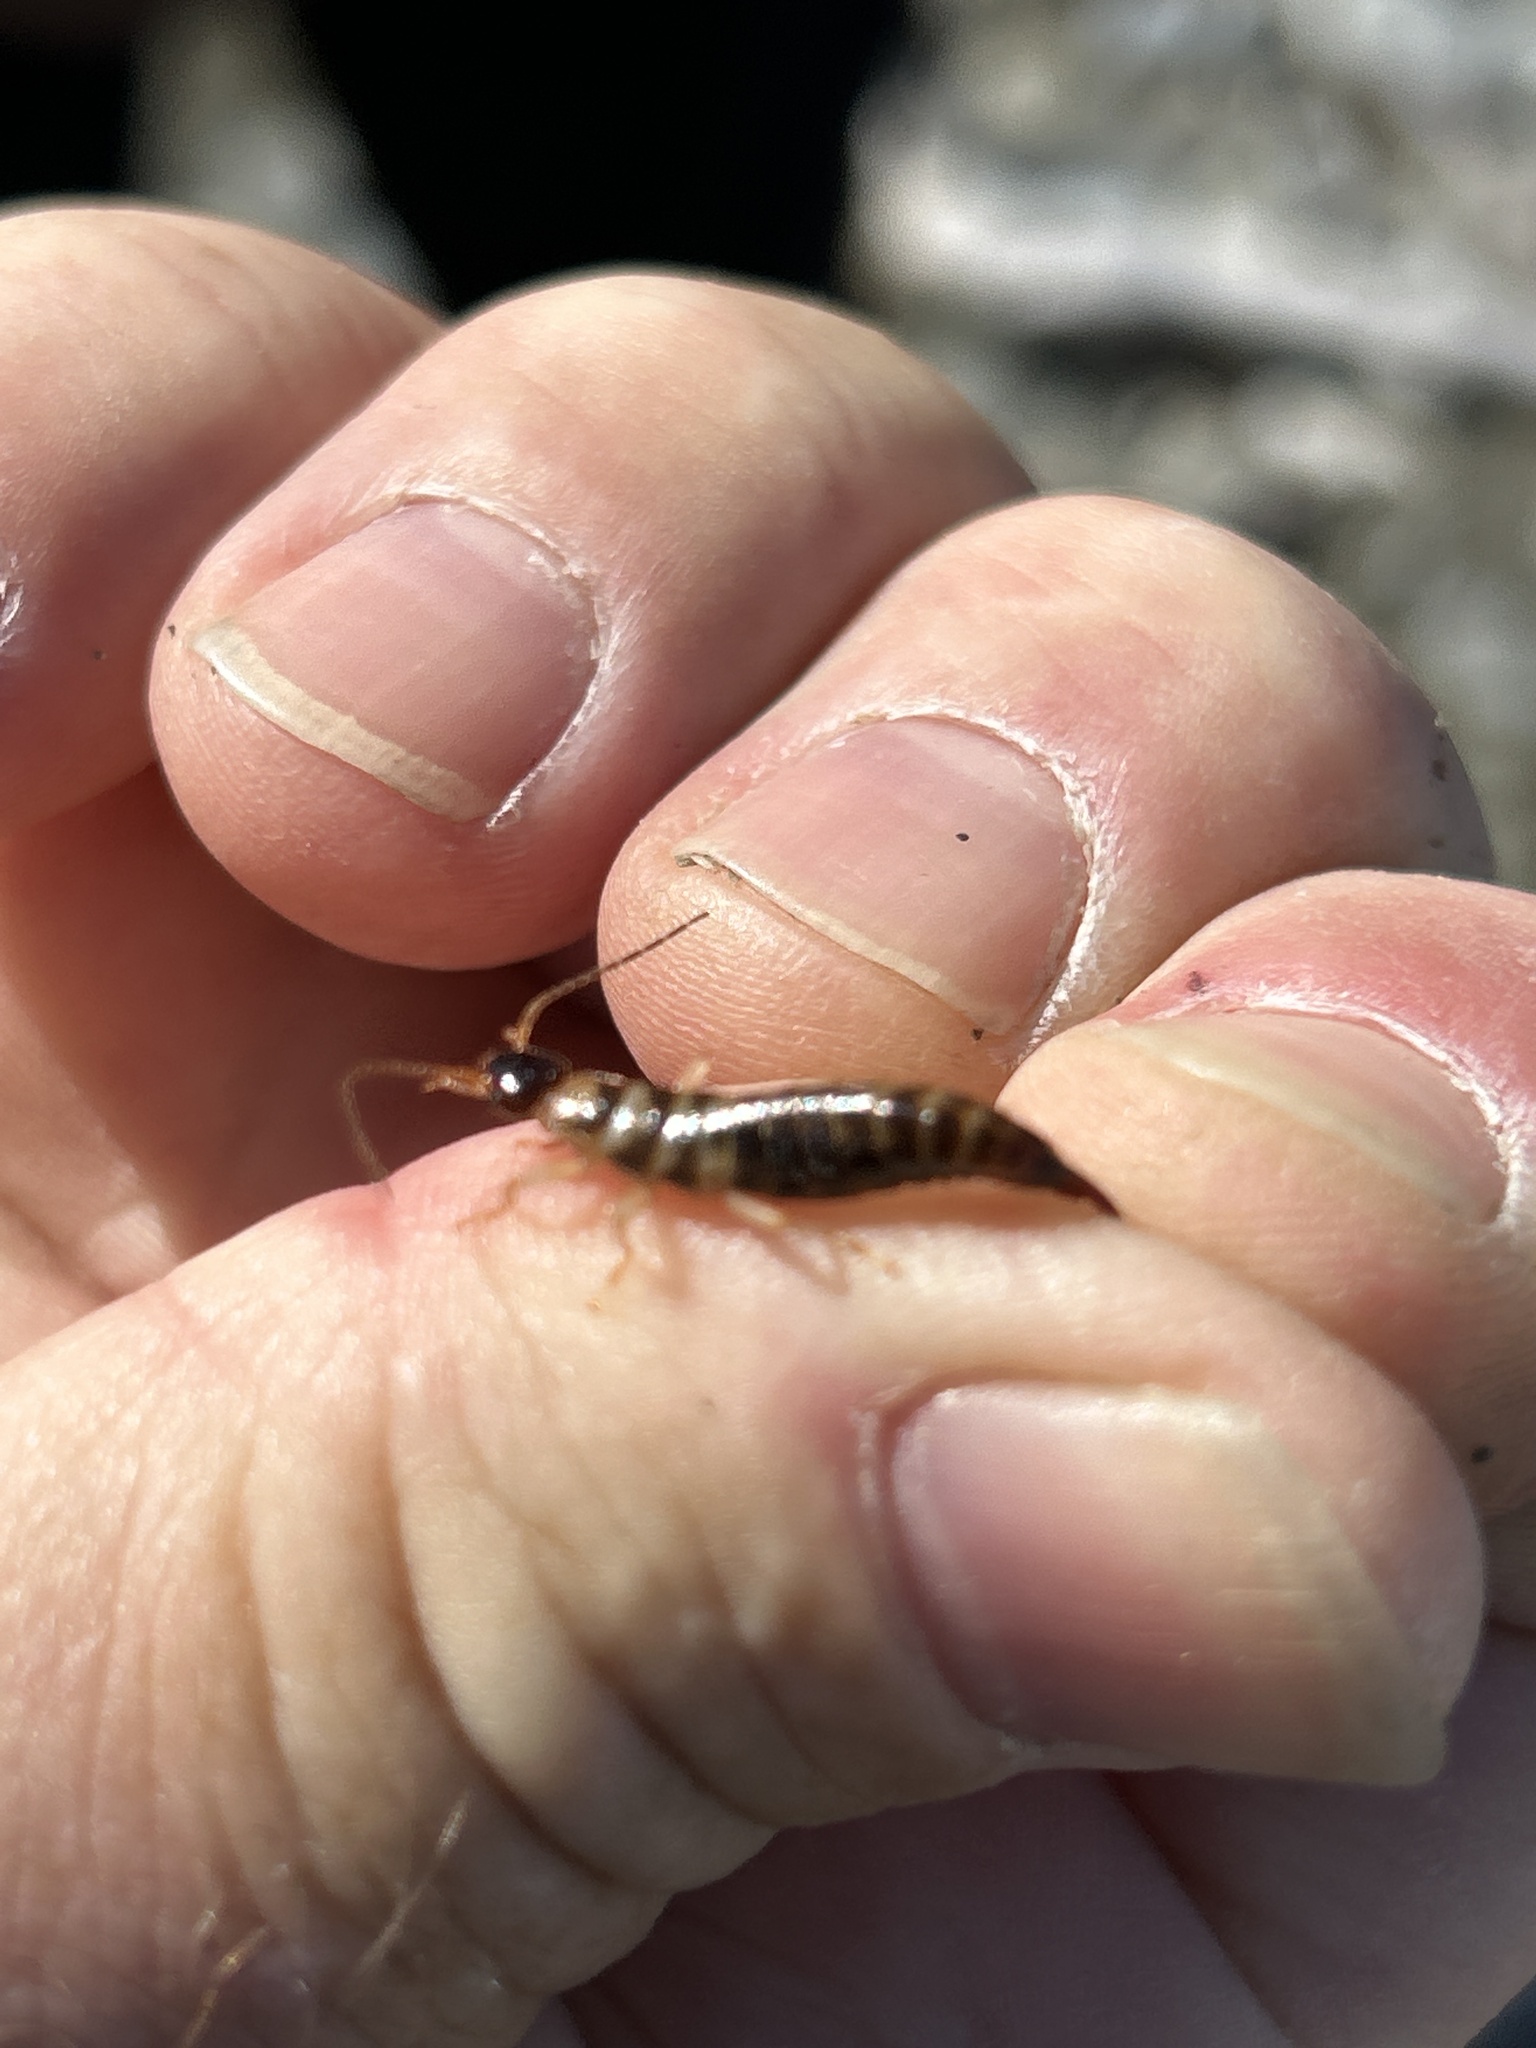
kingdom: Animalia
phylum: Arthropoda
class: Insecta
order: Dermaptera
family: Anisolabididae
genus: Anisolabis
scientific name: Anisolabis littorea
